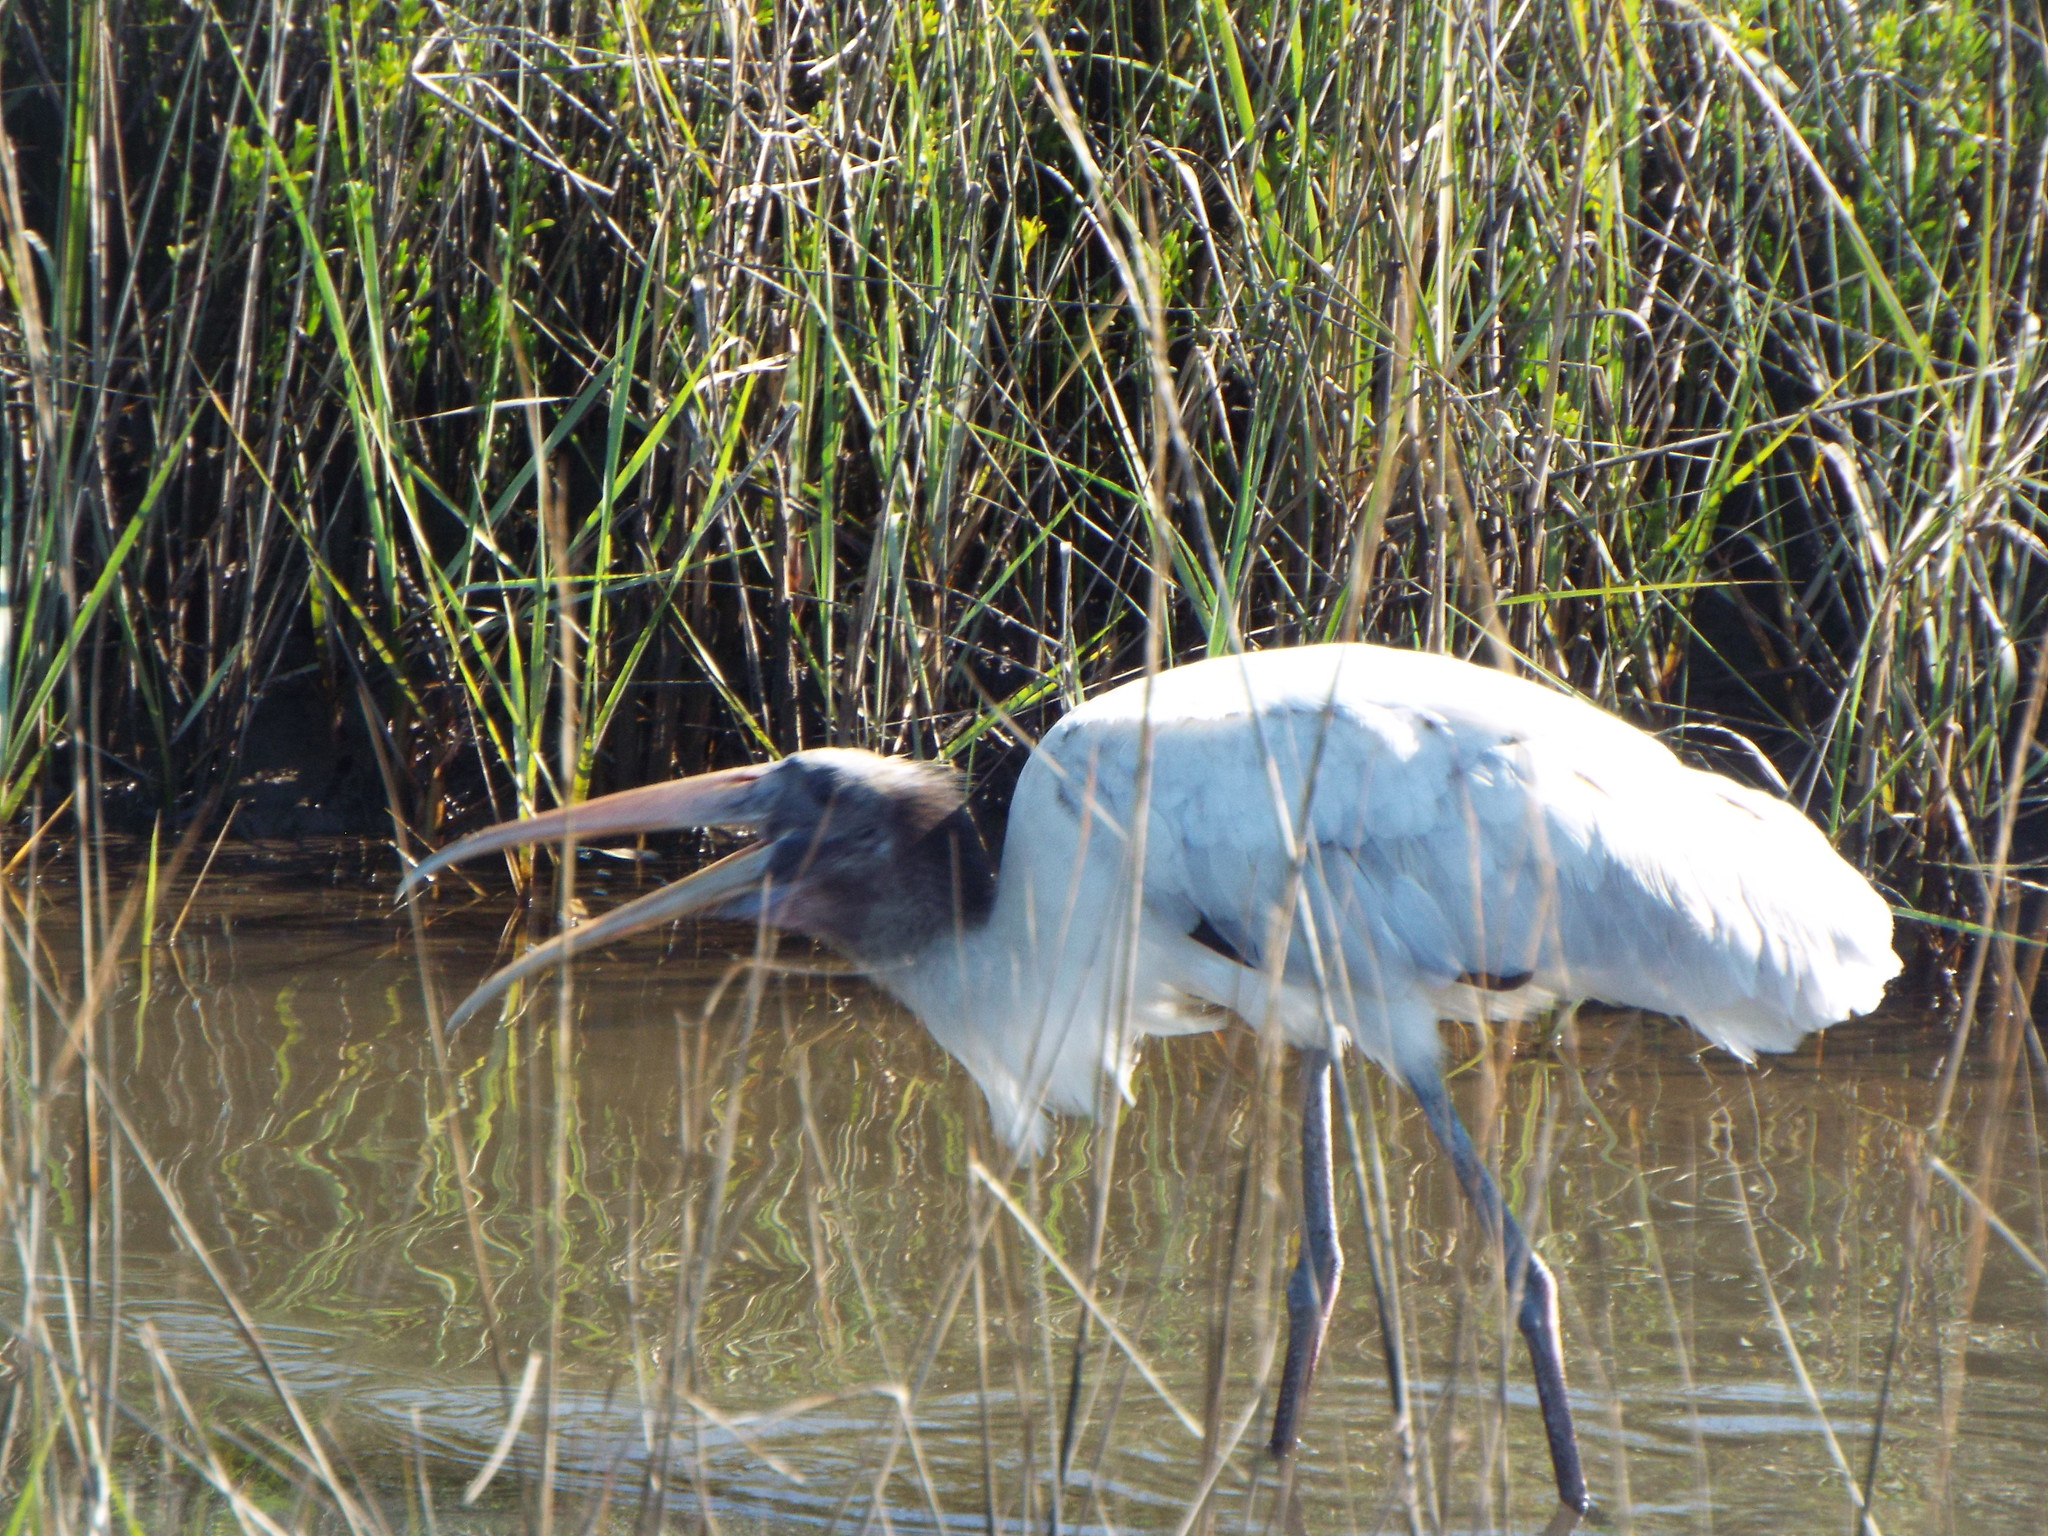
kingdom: Animalia
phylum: Chordata
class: Aves
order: Ciconiiformes
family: Ciconiidae
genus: Mycteria
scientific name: Mycteria americana
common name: Wood stork
